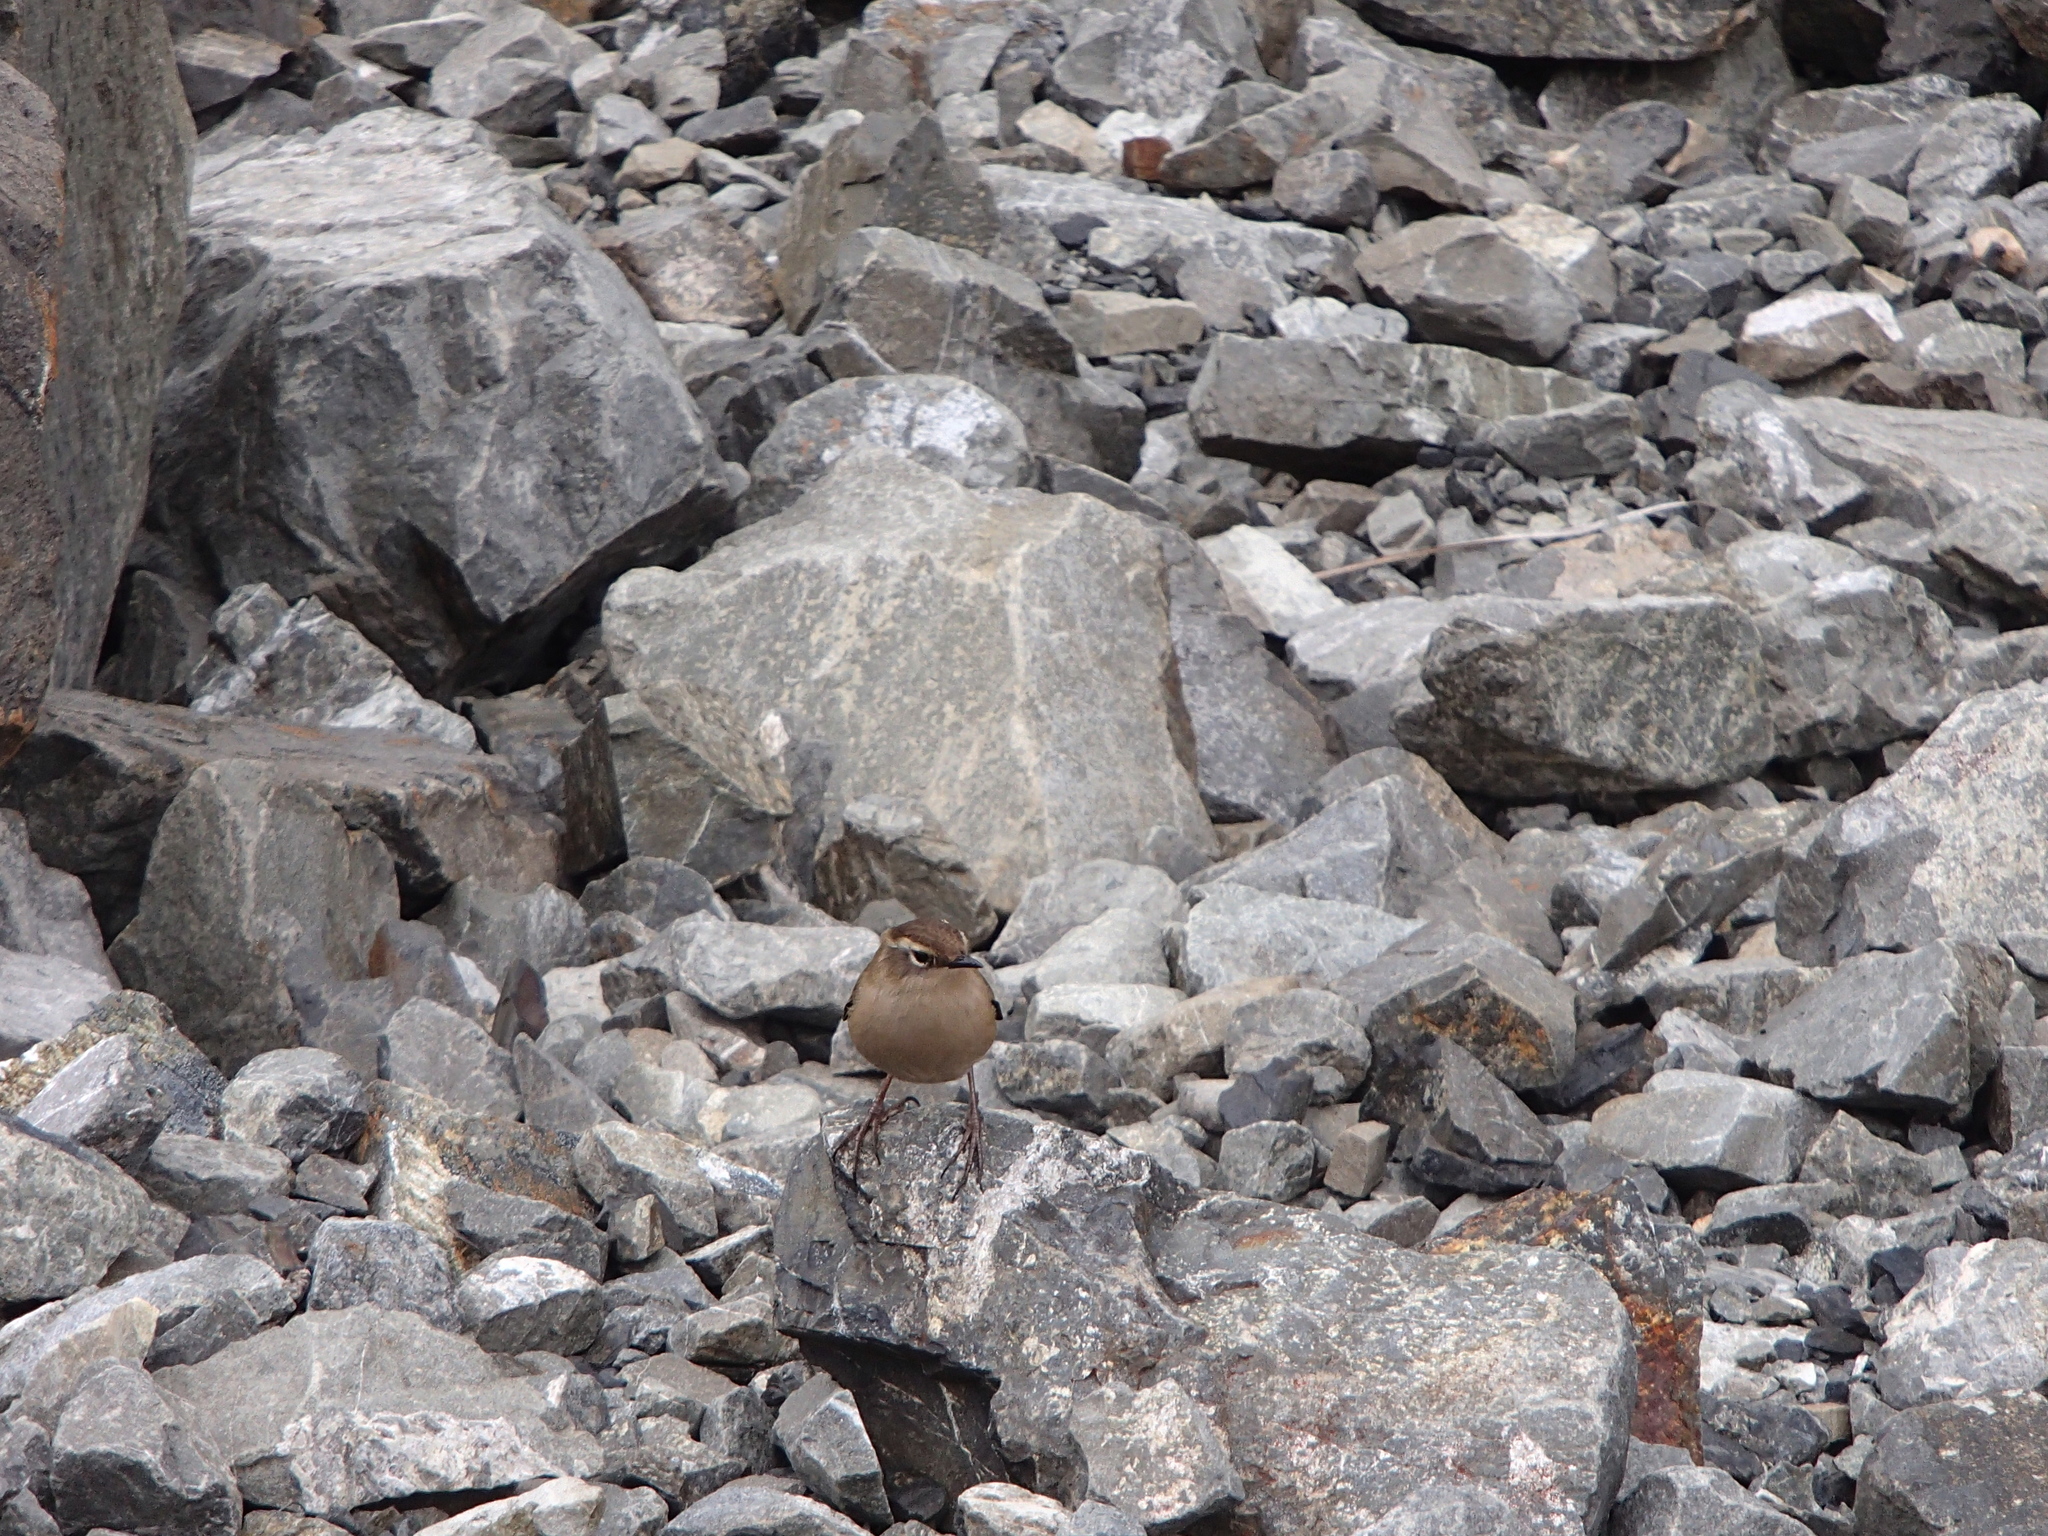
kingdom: Animalia
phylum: Chordata
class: Aves
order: Passeriformes
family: Acanthisittidae
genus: Xenicus
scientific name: Xenicus gilviventris
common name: New zealand rockwren
